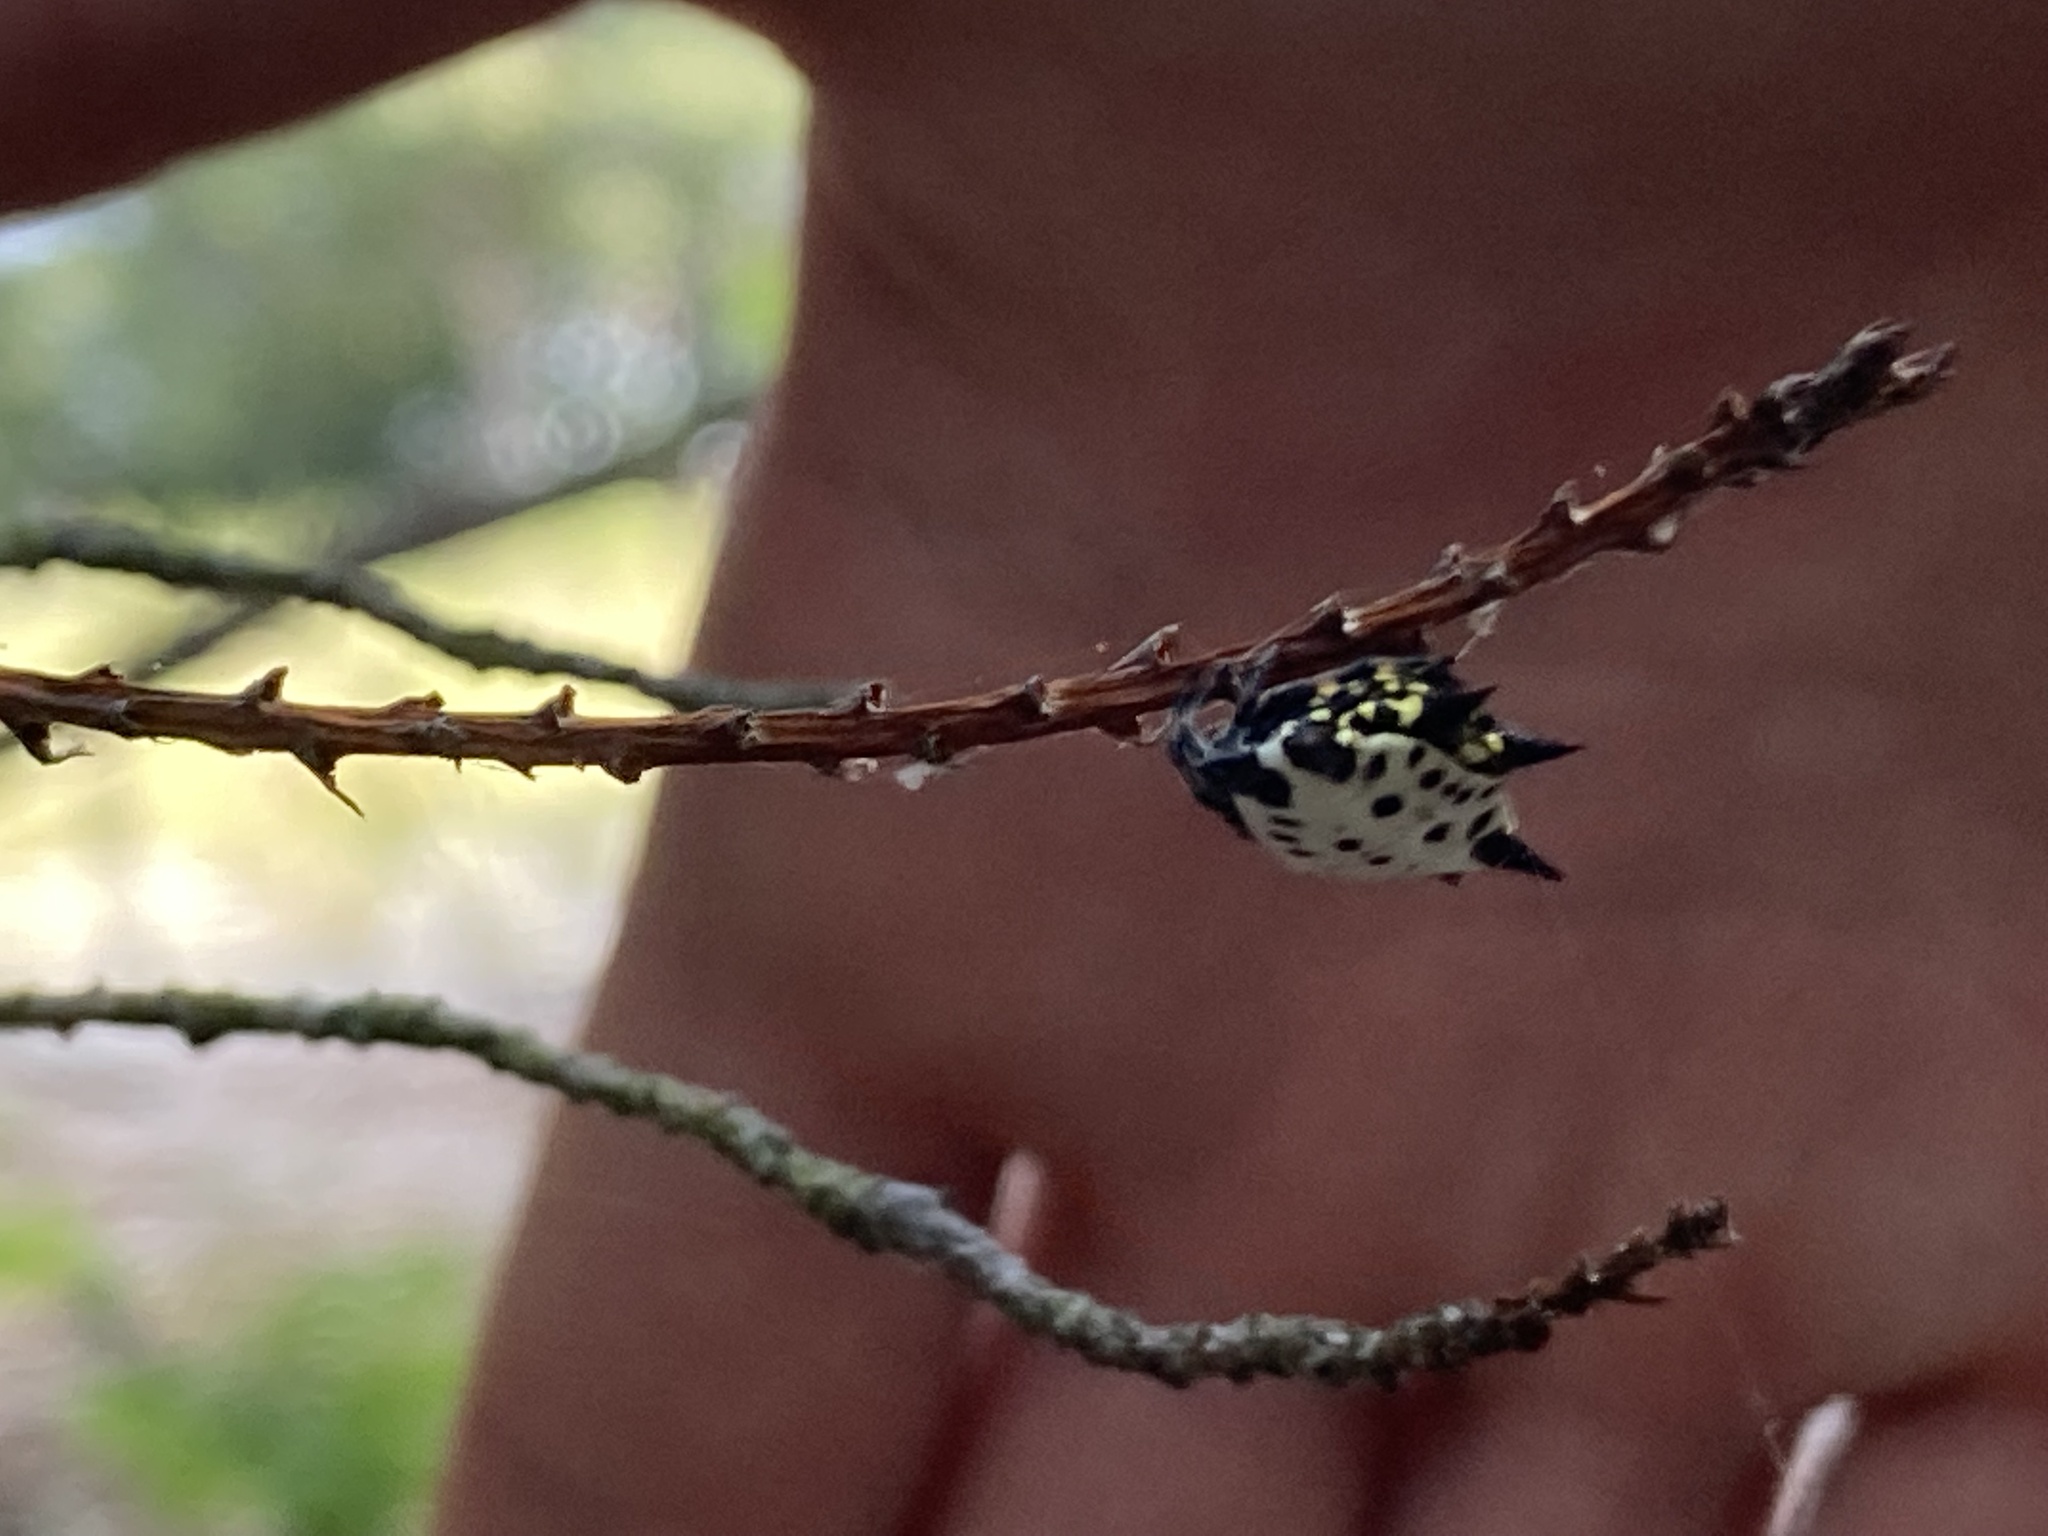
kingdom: Animalia
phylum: Arthropoda
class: Arachnida
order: Araneae
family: Araneidae
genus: Gasteracantha
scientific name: Gasteracantha cancriformis
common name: Orb weavers
